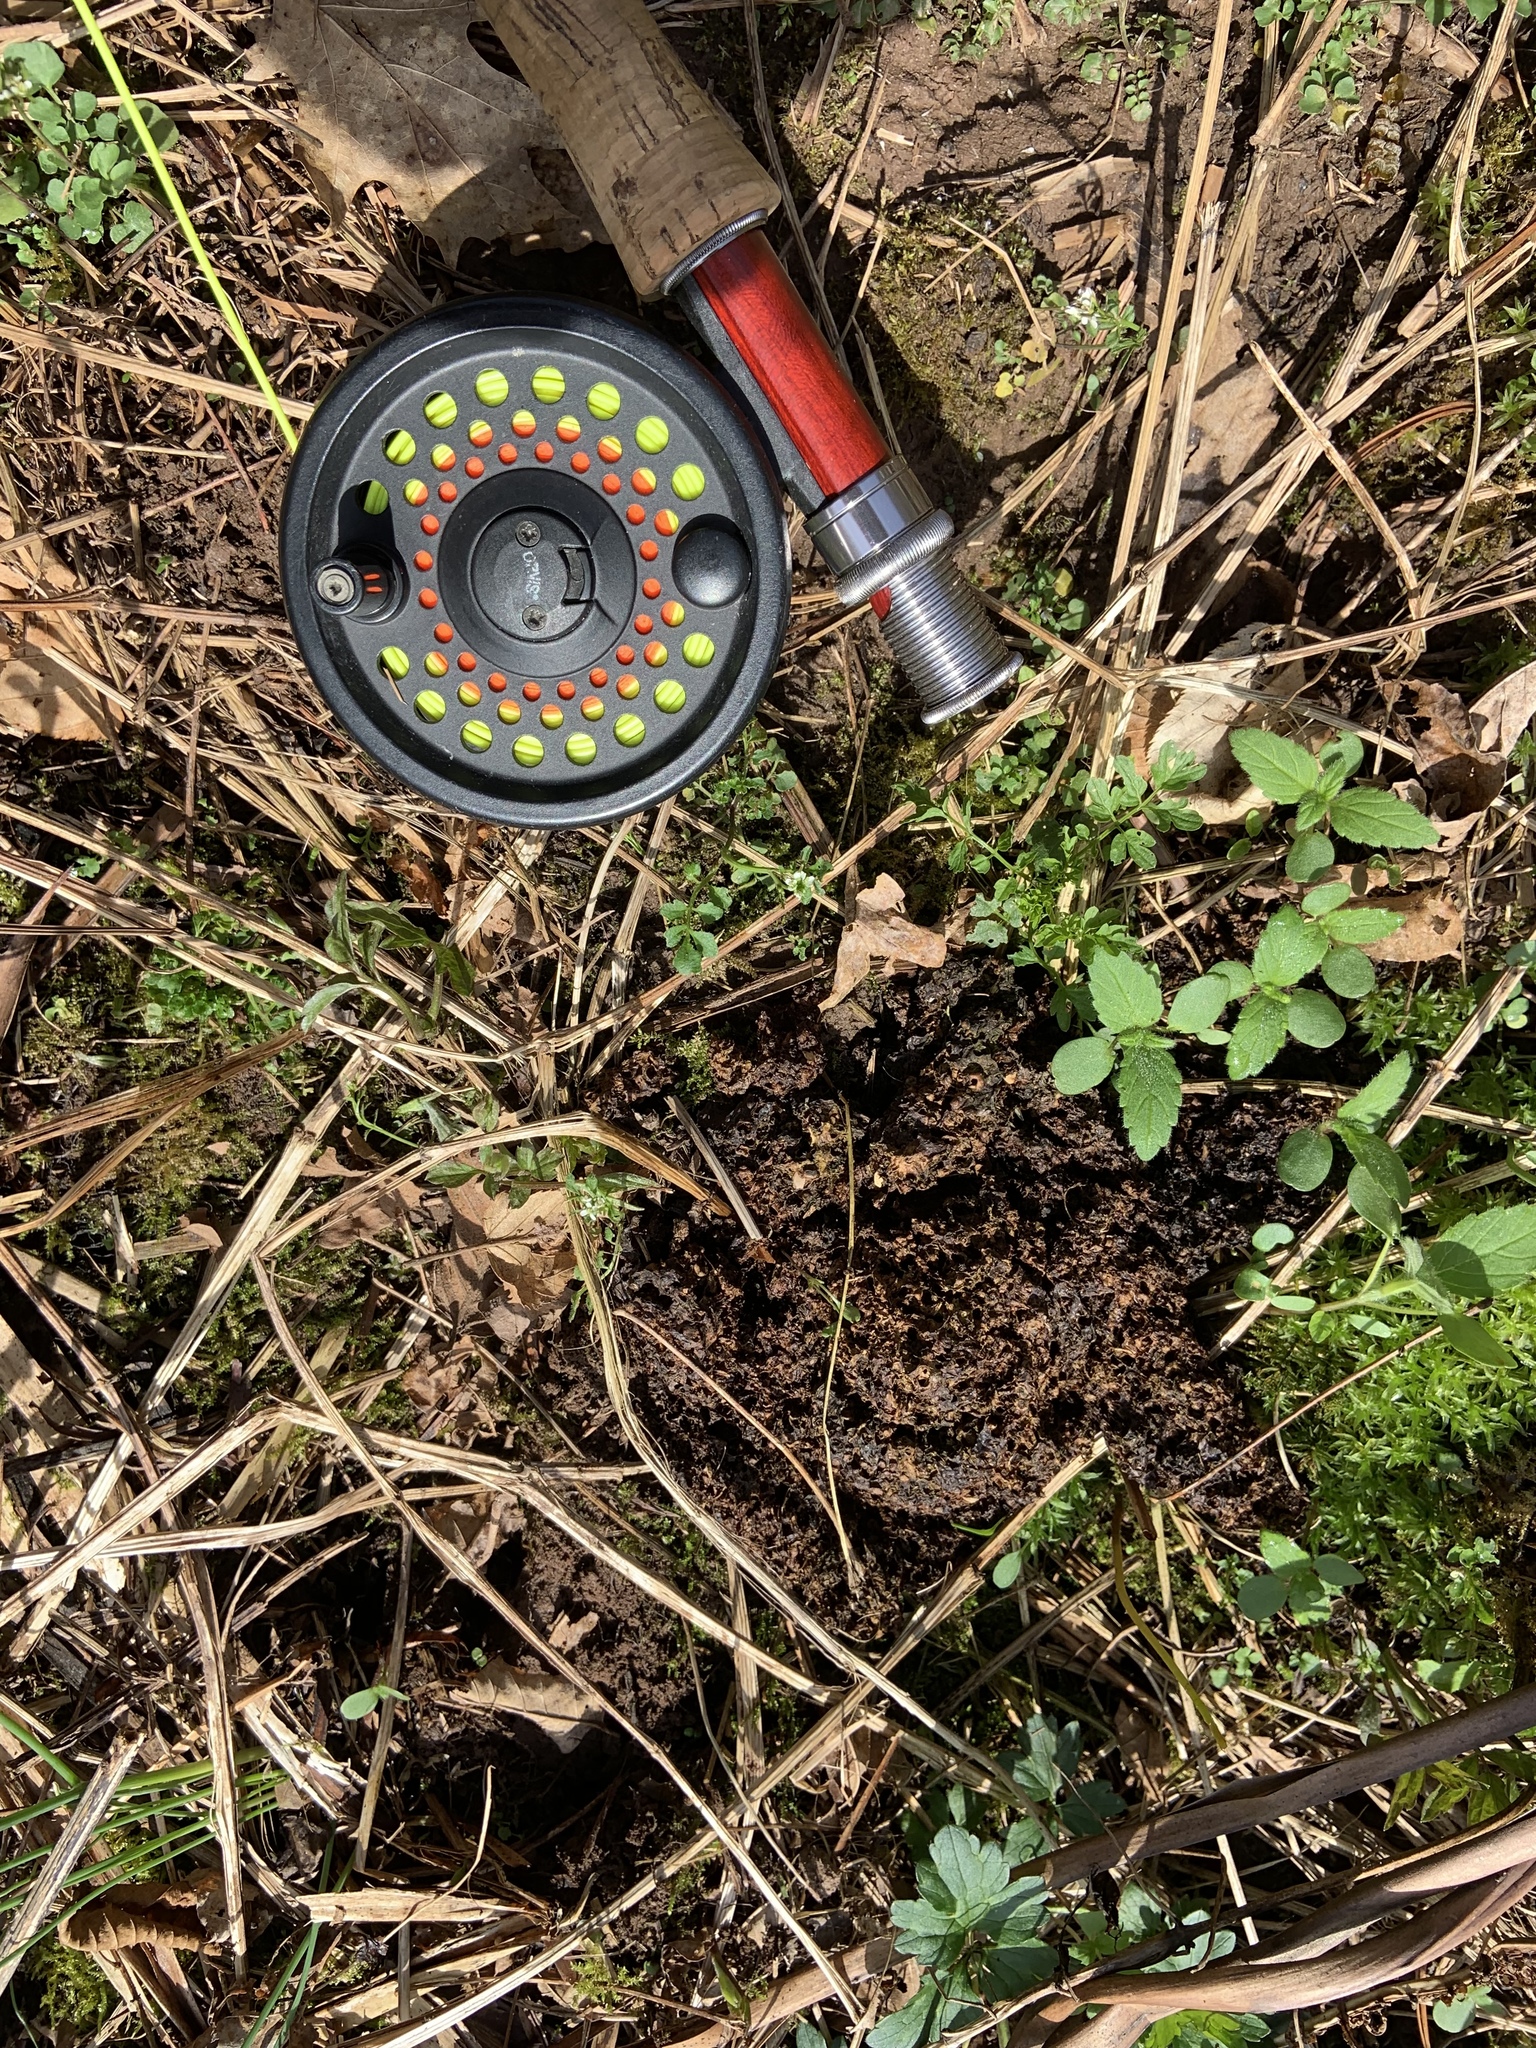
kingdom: Animalia
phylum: Chordata
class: Mammalia
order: Carnivora
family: Ursidae
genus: Ursus
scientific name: Ursus americanus
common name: American black bear
